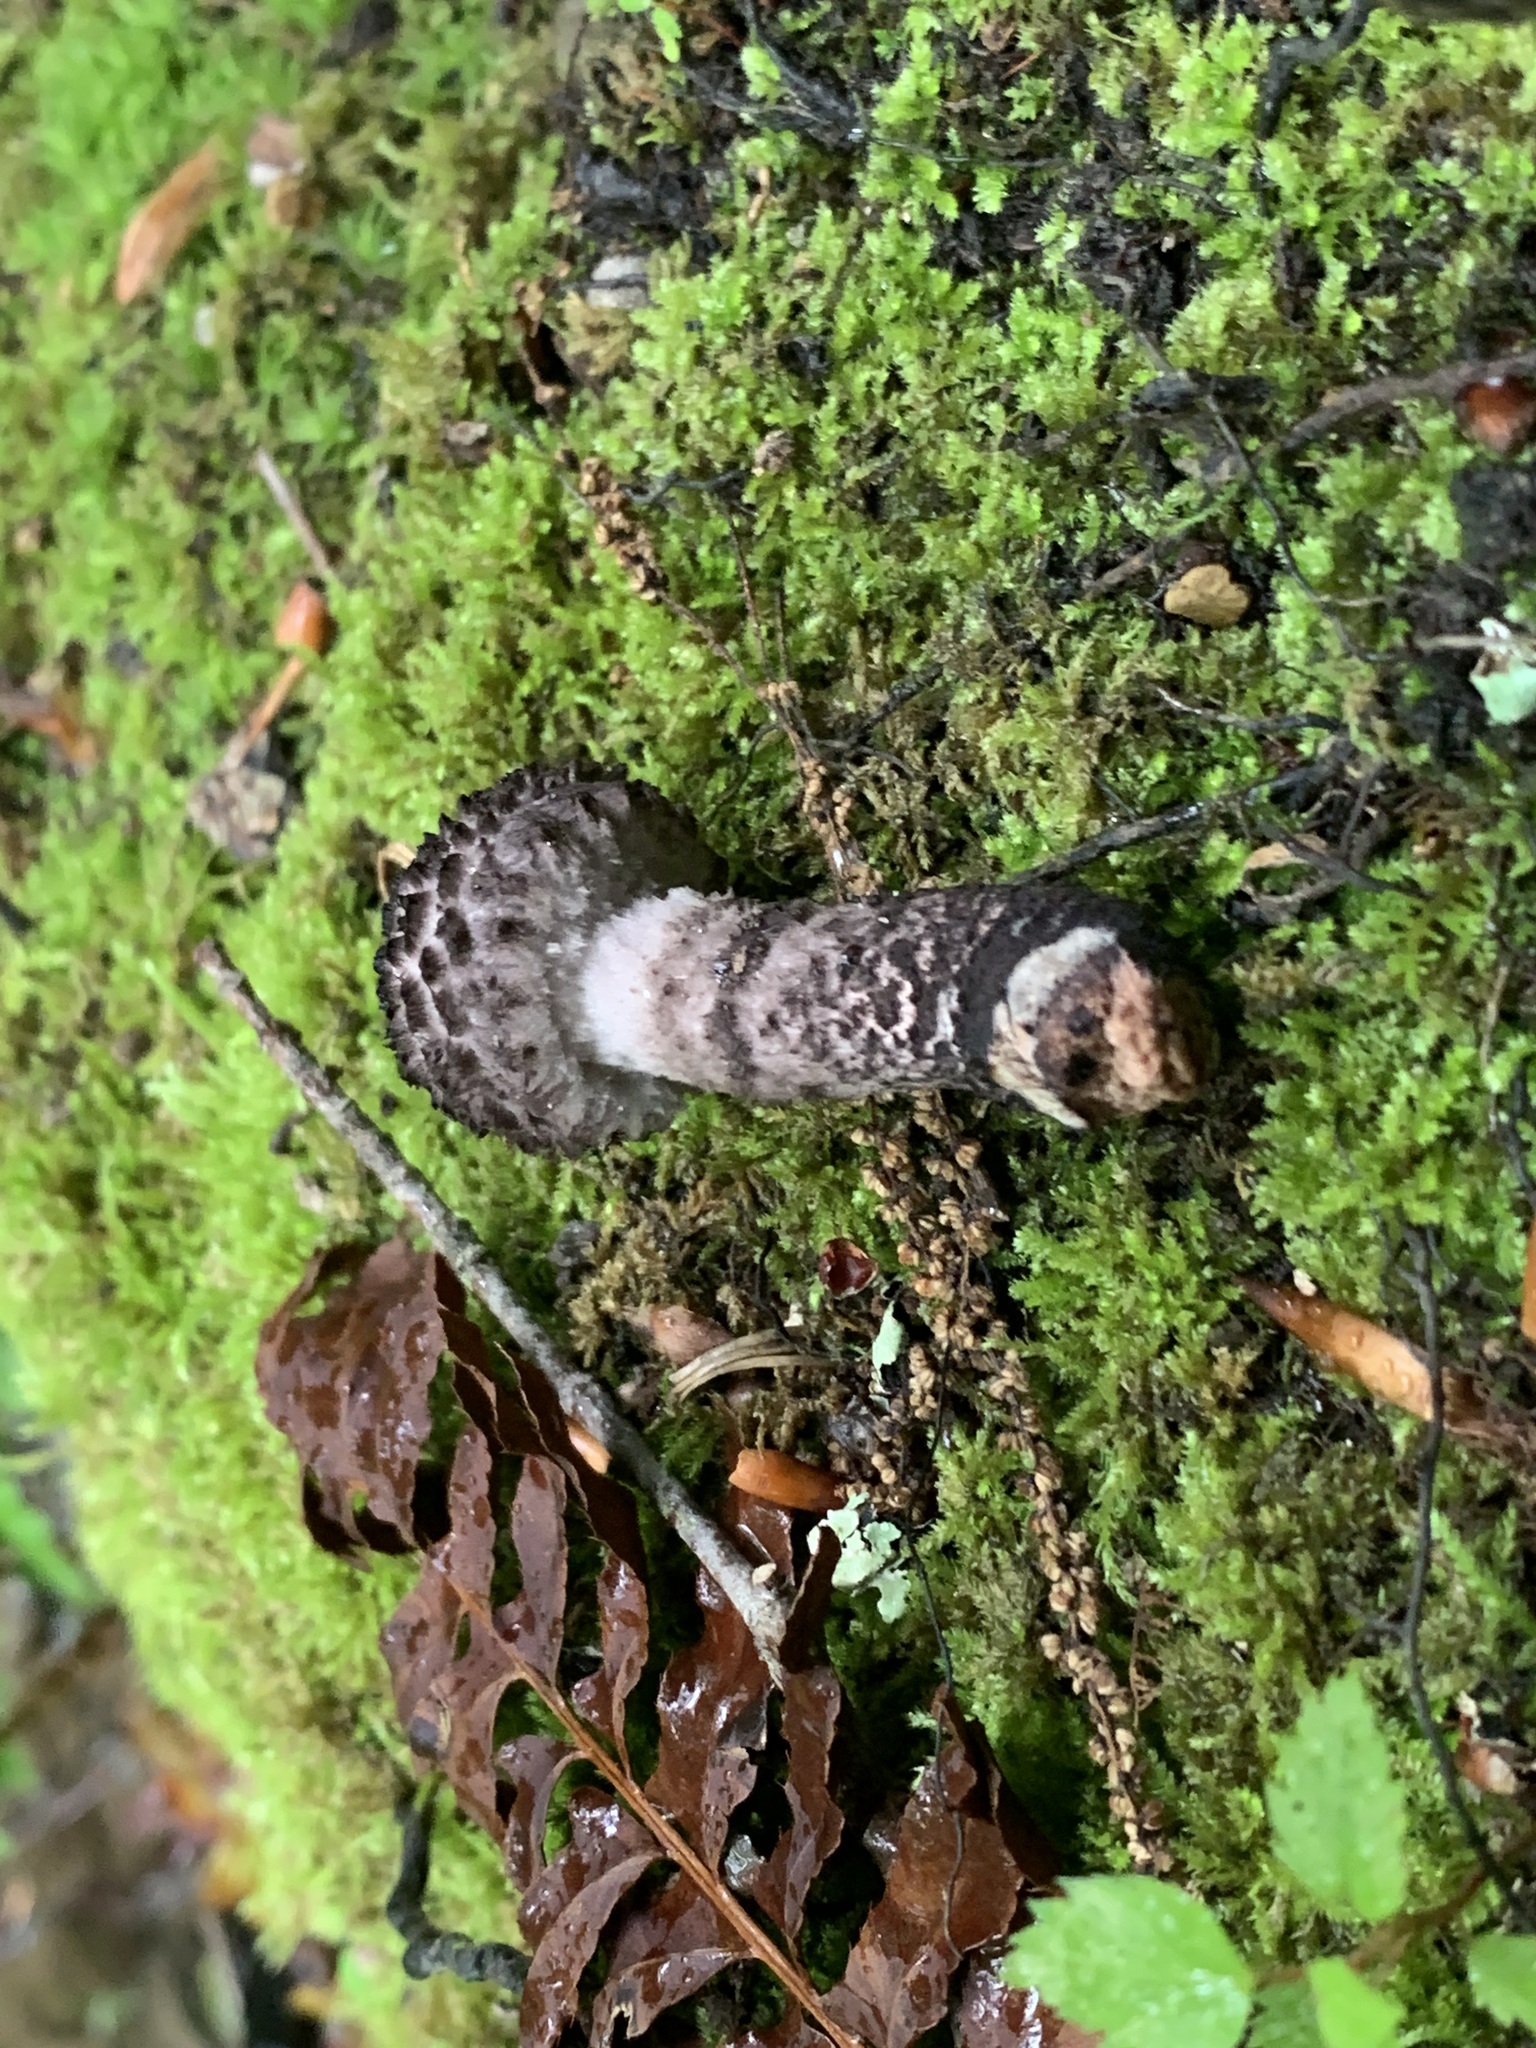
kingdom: Fungi
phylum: Basidiomycota
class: Agaricomycetes
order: Boletales
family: Boletaceae
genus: Strobilomyces
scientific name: Strobilomyces strobilaceus
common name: Old man of the woods
